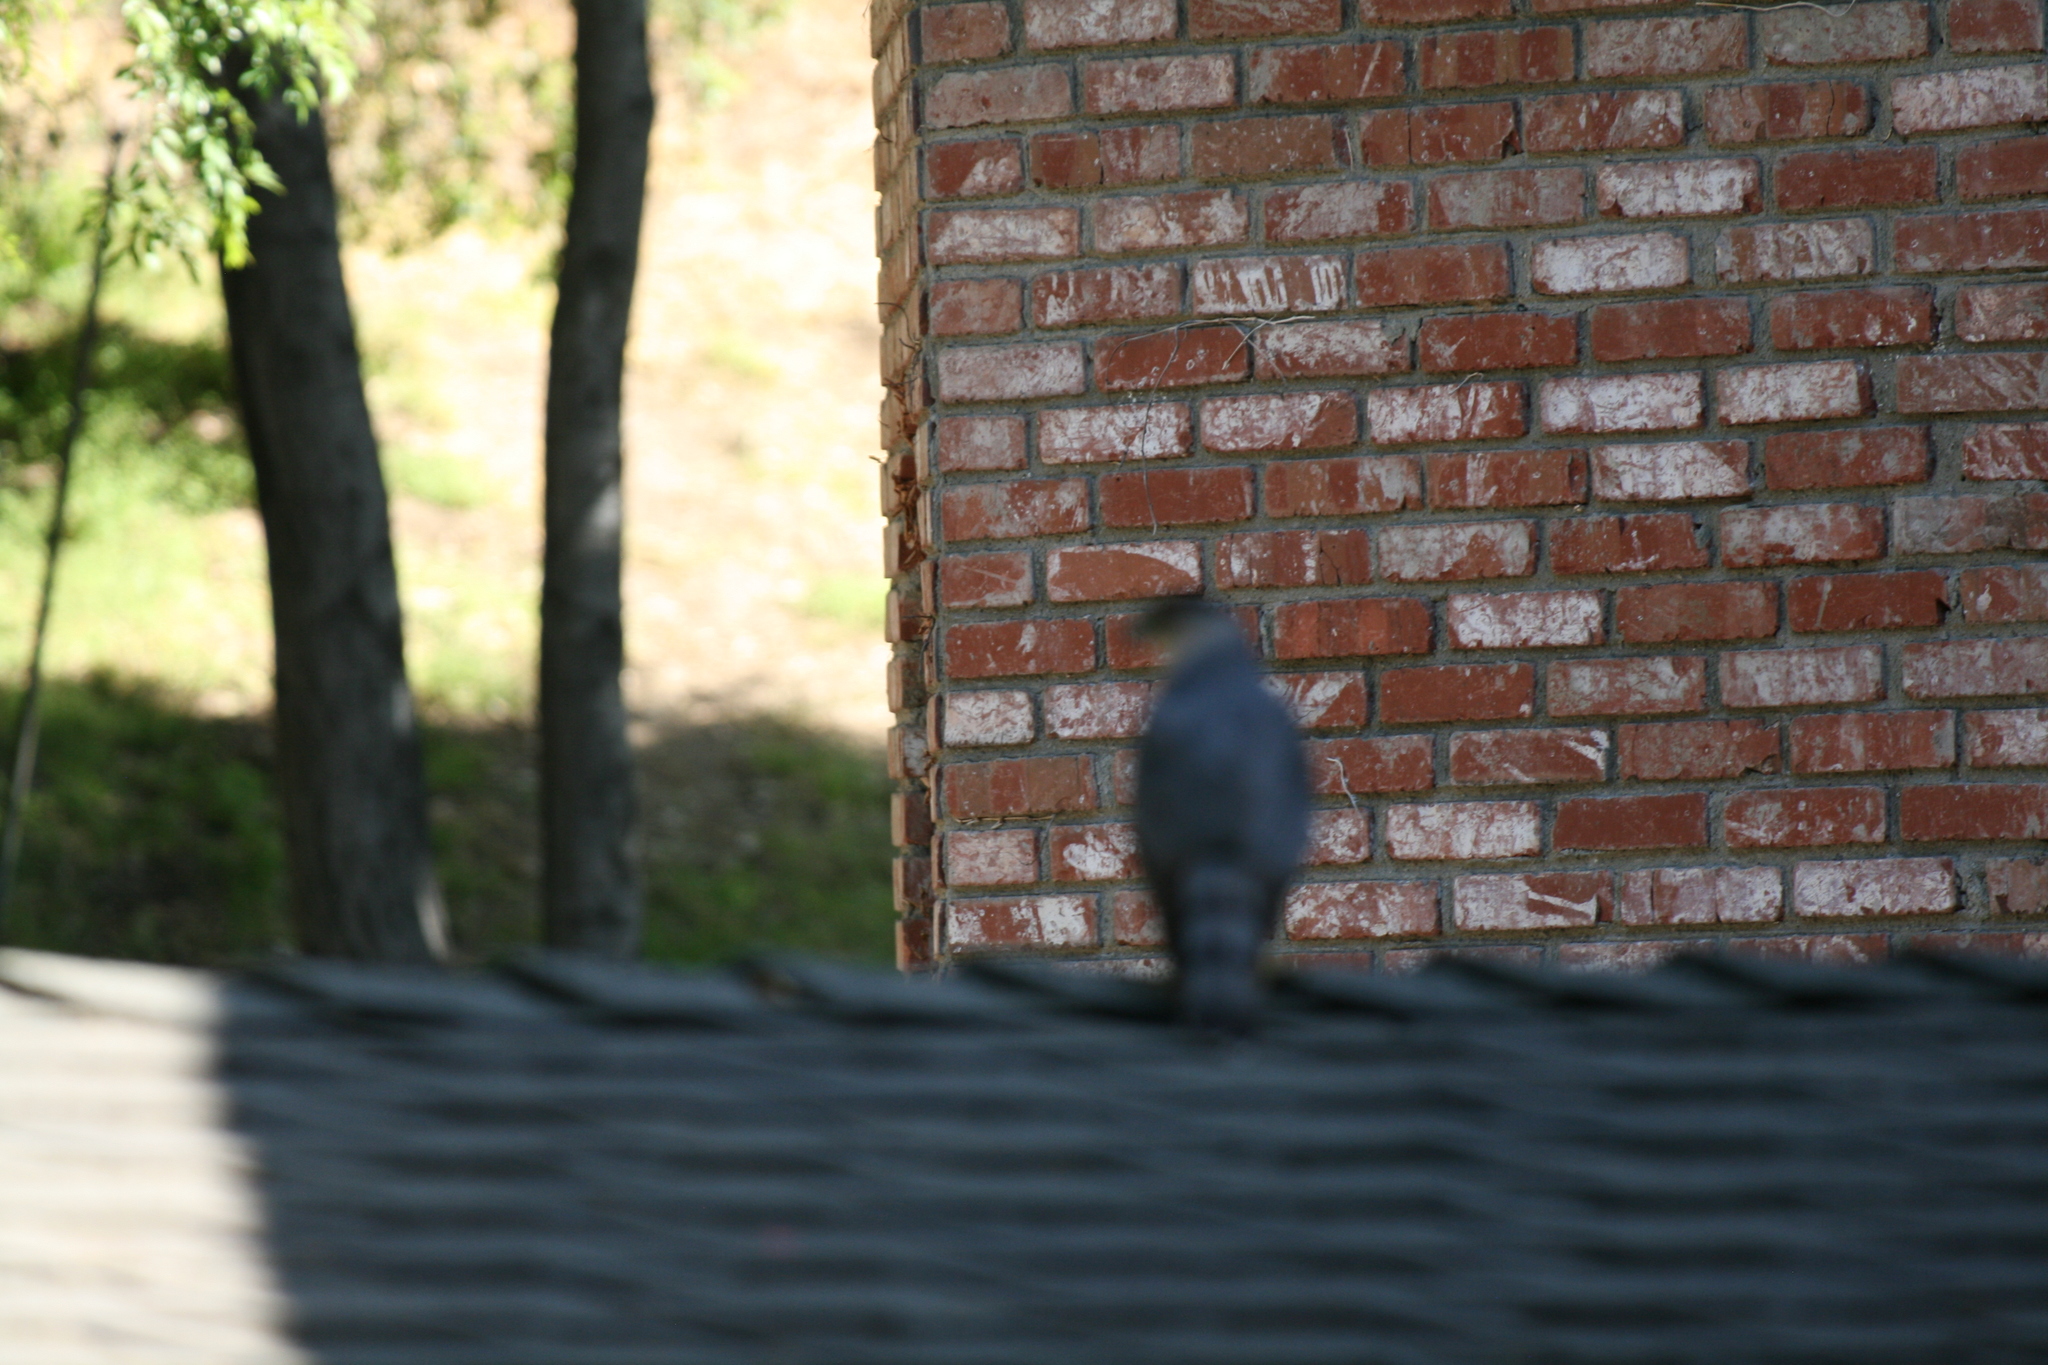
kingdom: Animalia
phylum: Chordata
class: Aves
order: Accipitriformes
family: Accipitridae
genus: Accipiter
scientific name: Accipiter cooperii
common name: Cooper's hawk
